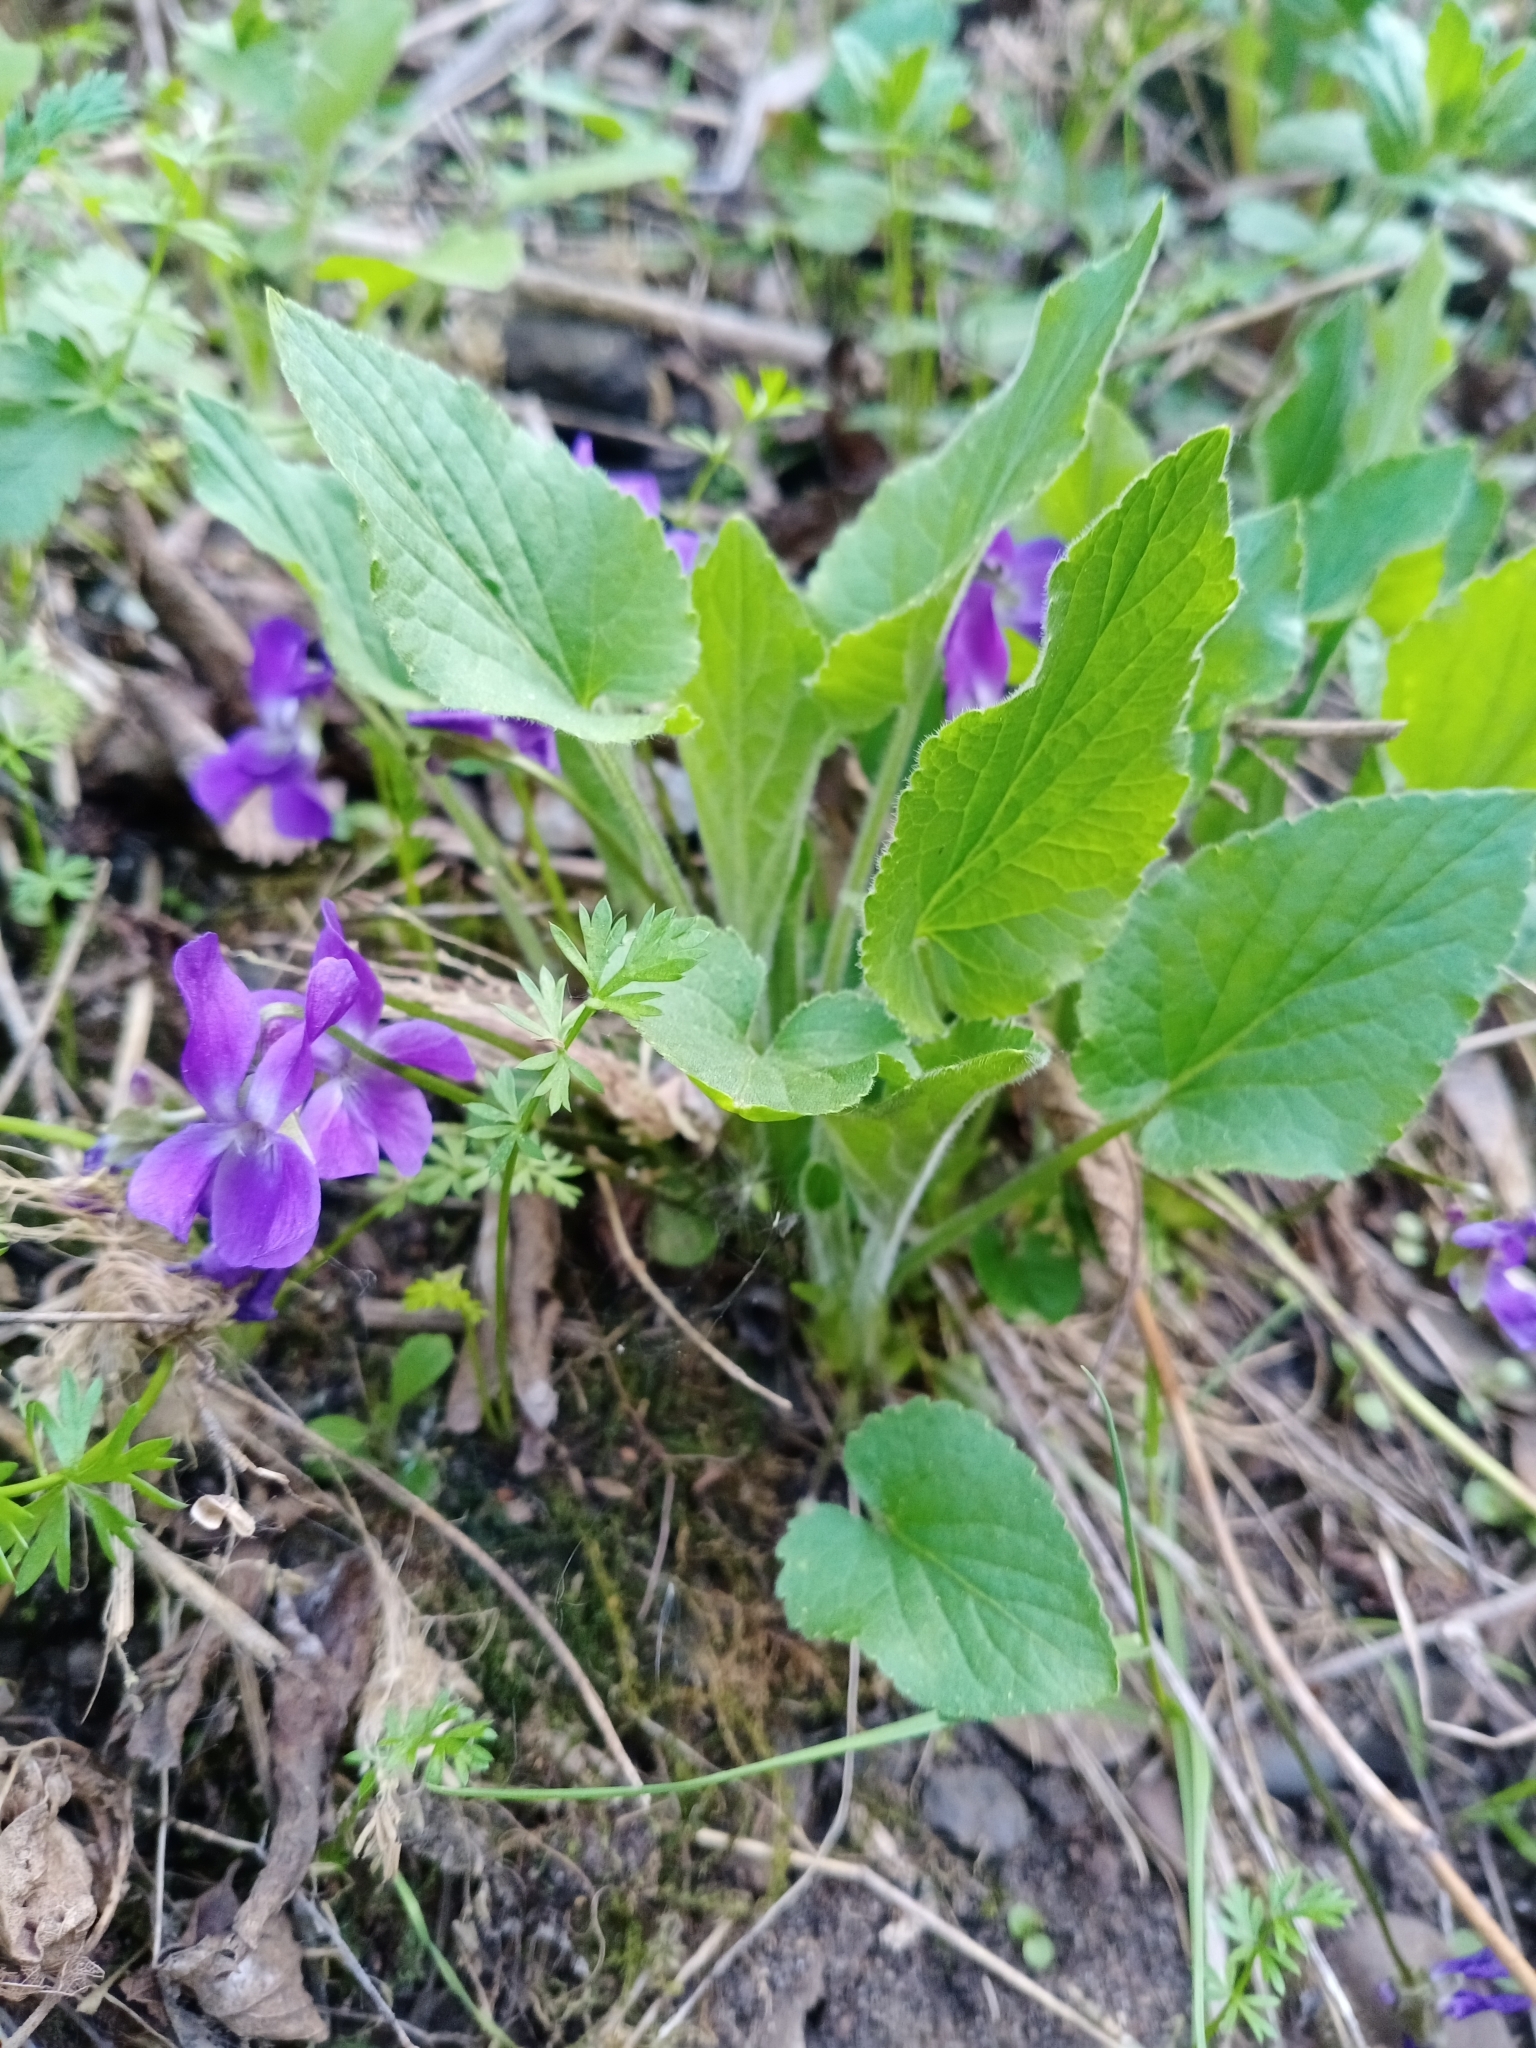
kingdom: Plantae
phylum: Tracheophyta
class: Magnoliopsida
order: Malpighiales
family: Violaceae
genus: Viola
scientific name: Viola hirta
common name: Hairy violet
